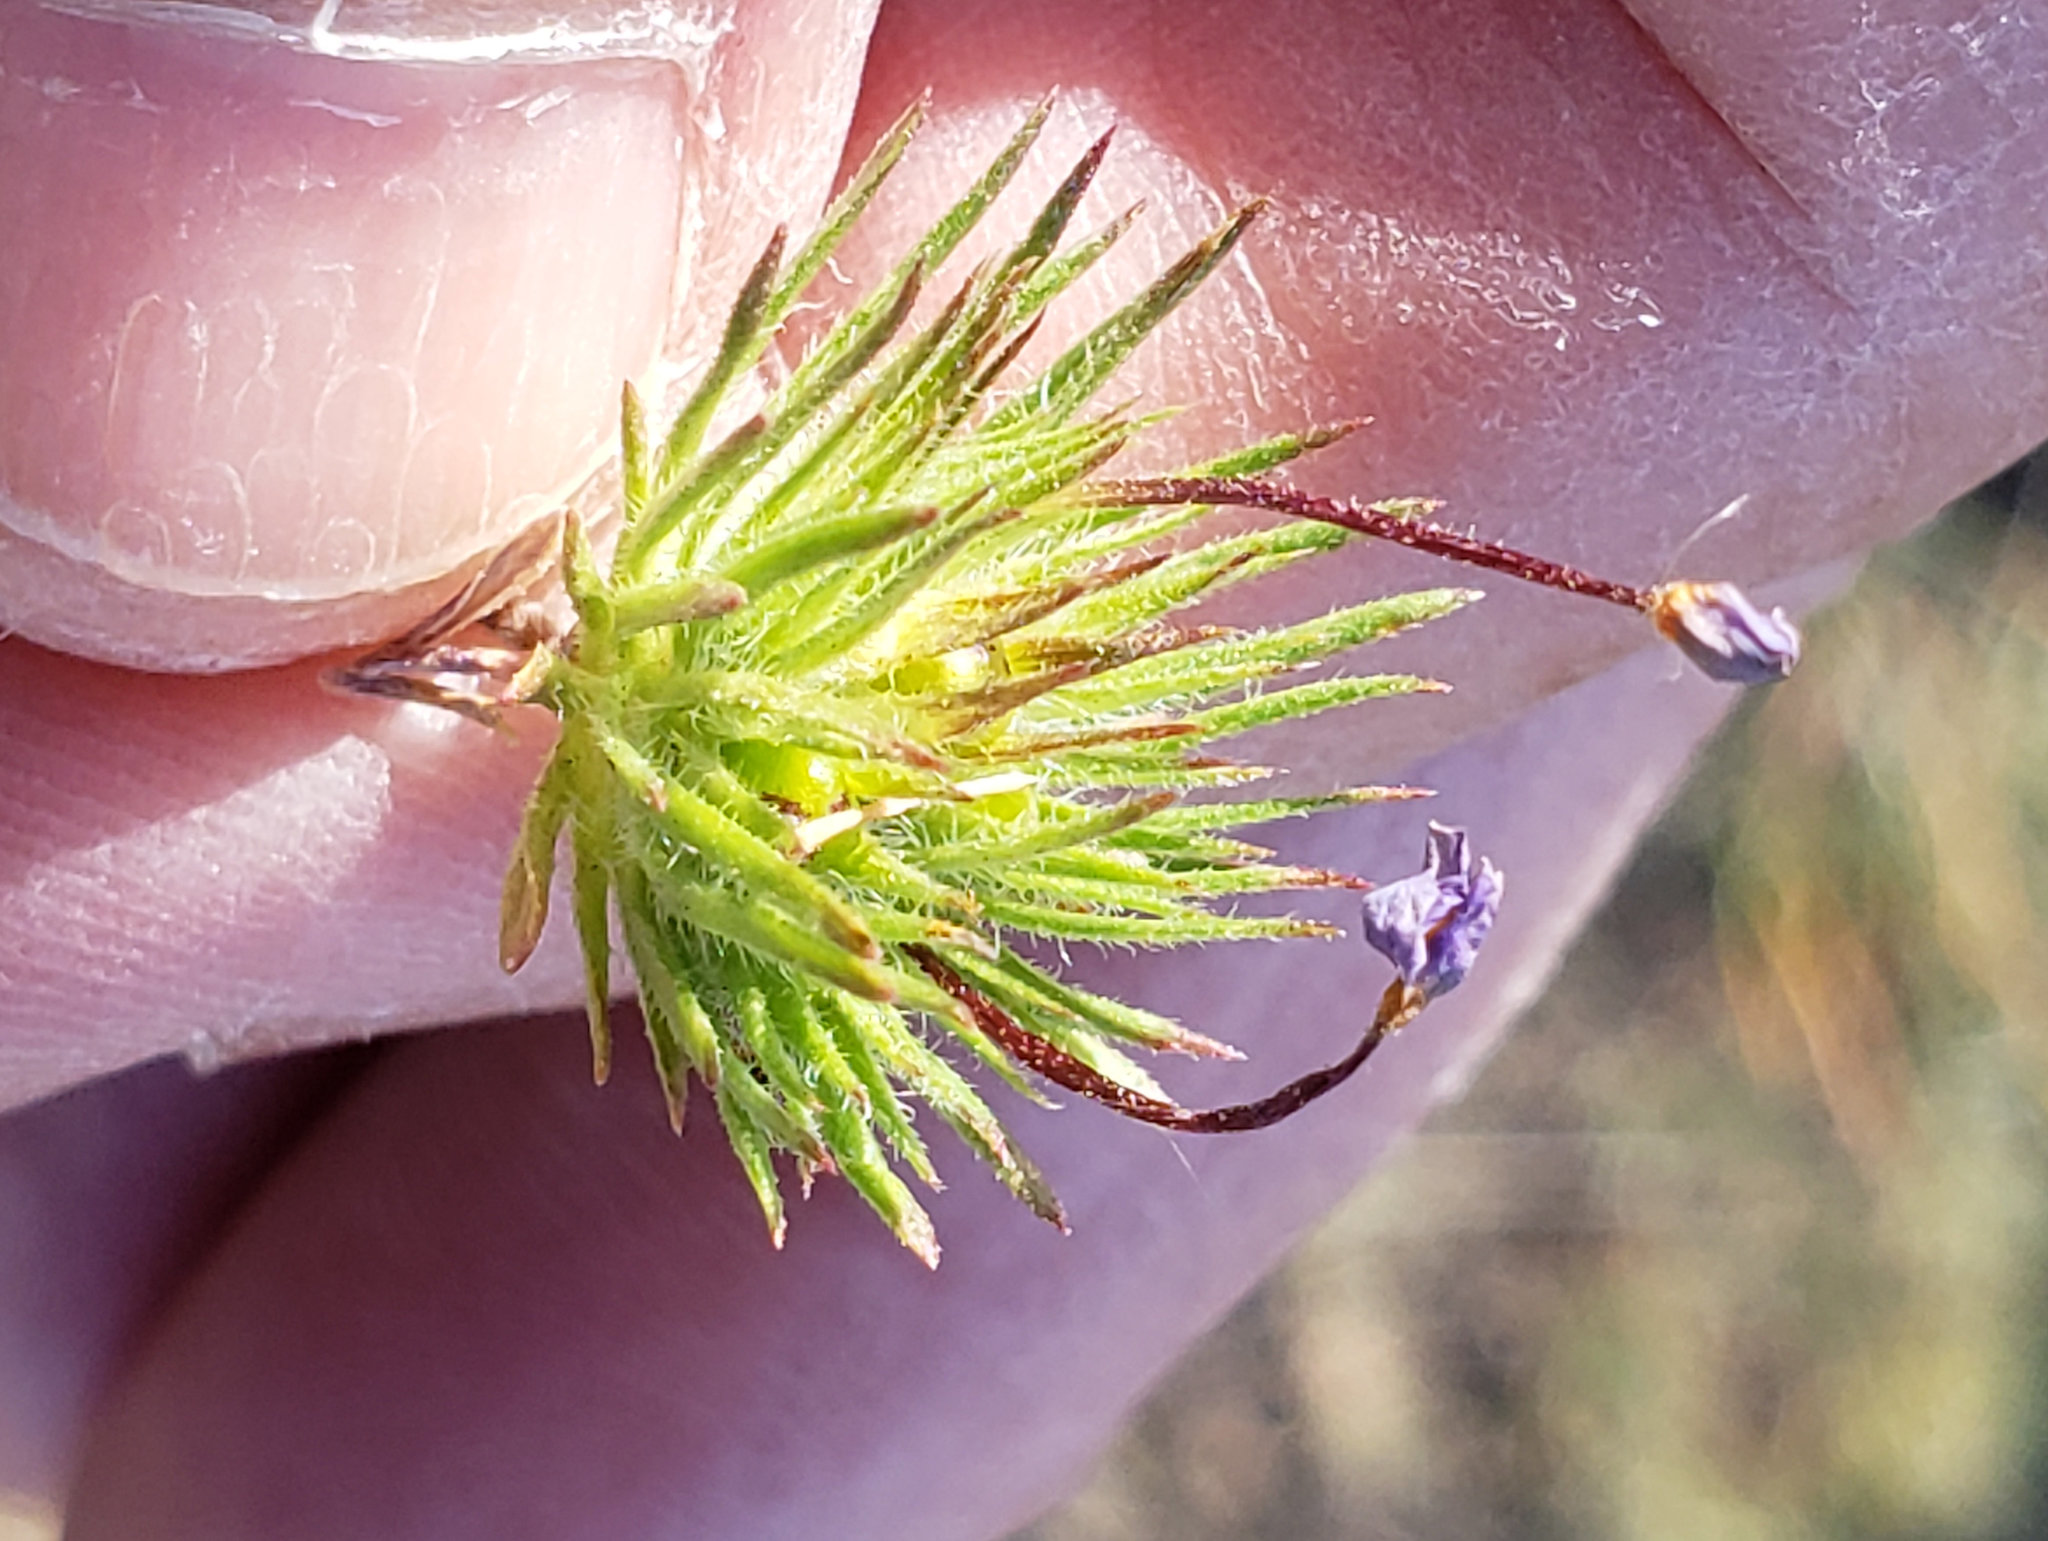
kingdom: Plantae
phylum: Tracheophyta
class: Magnoliopsida
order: Ericales
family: Polemoniaceae
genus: Leptosiphon
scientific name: Leptosiphon bicolor
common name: True babystars
